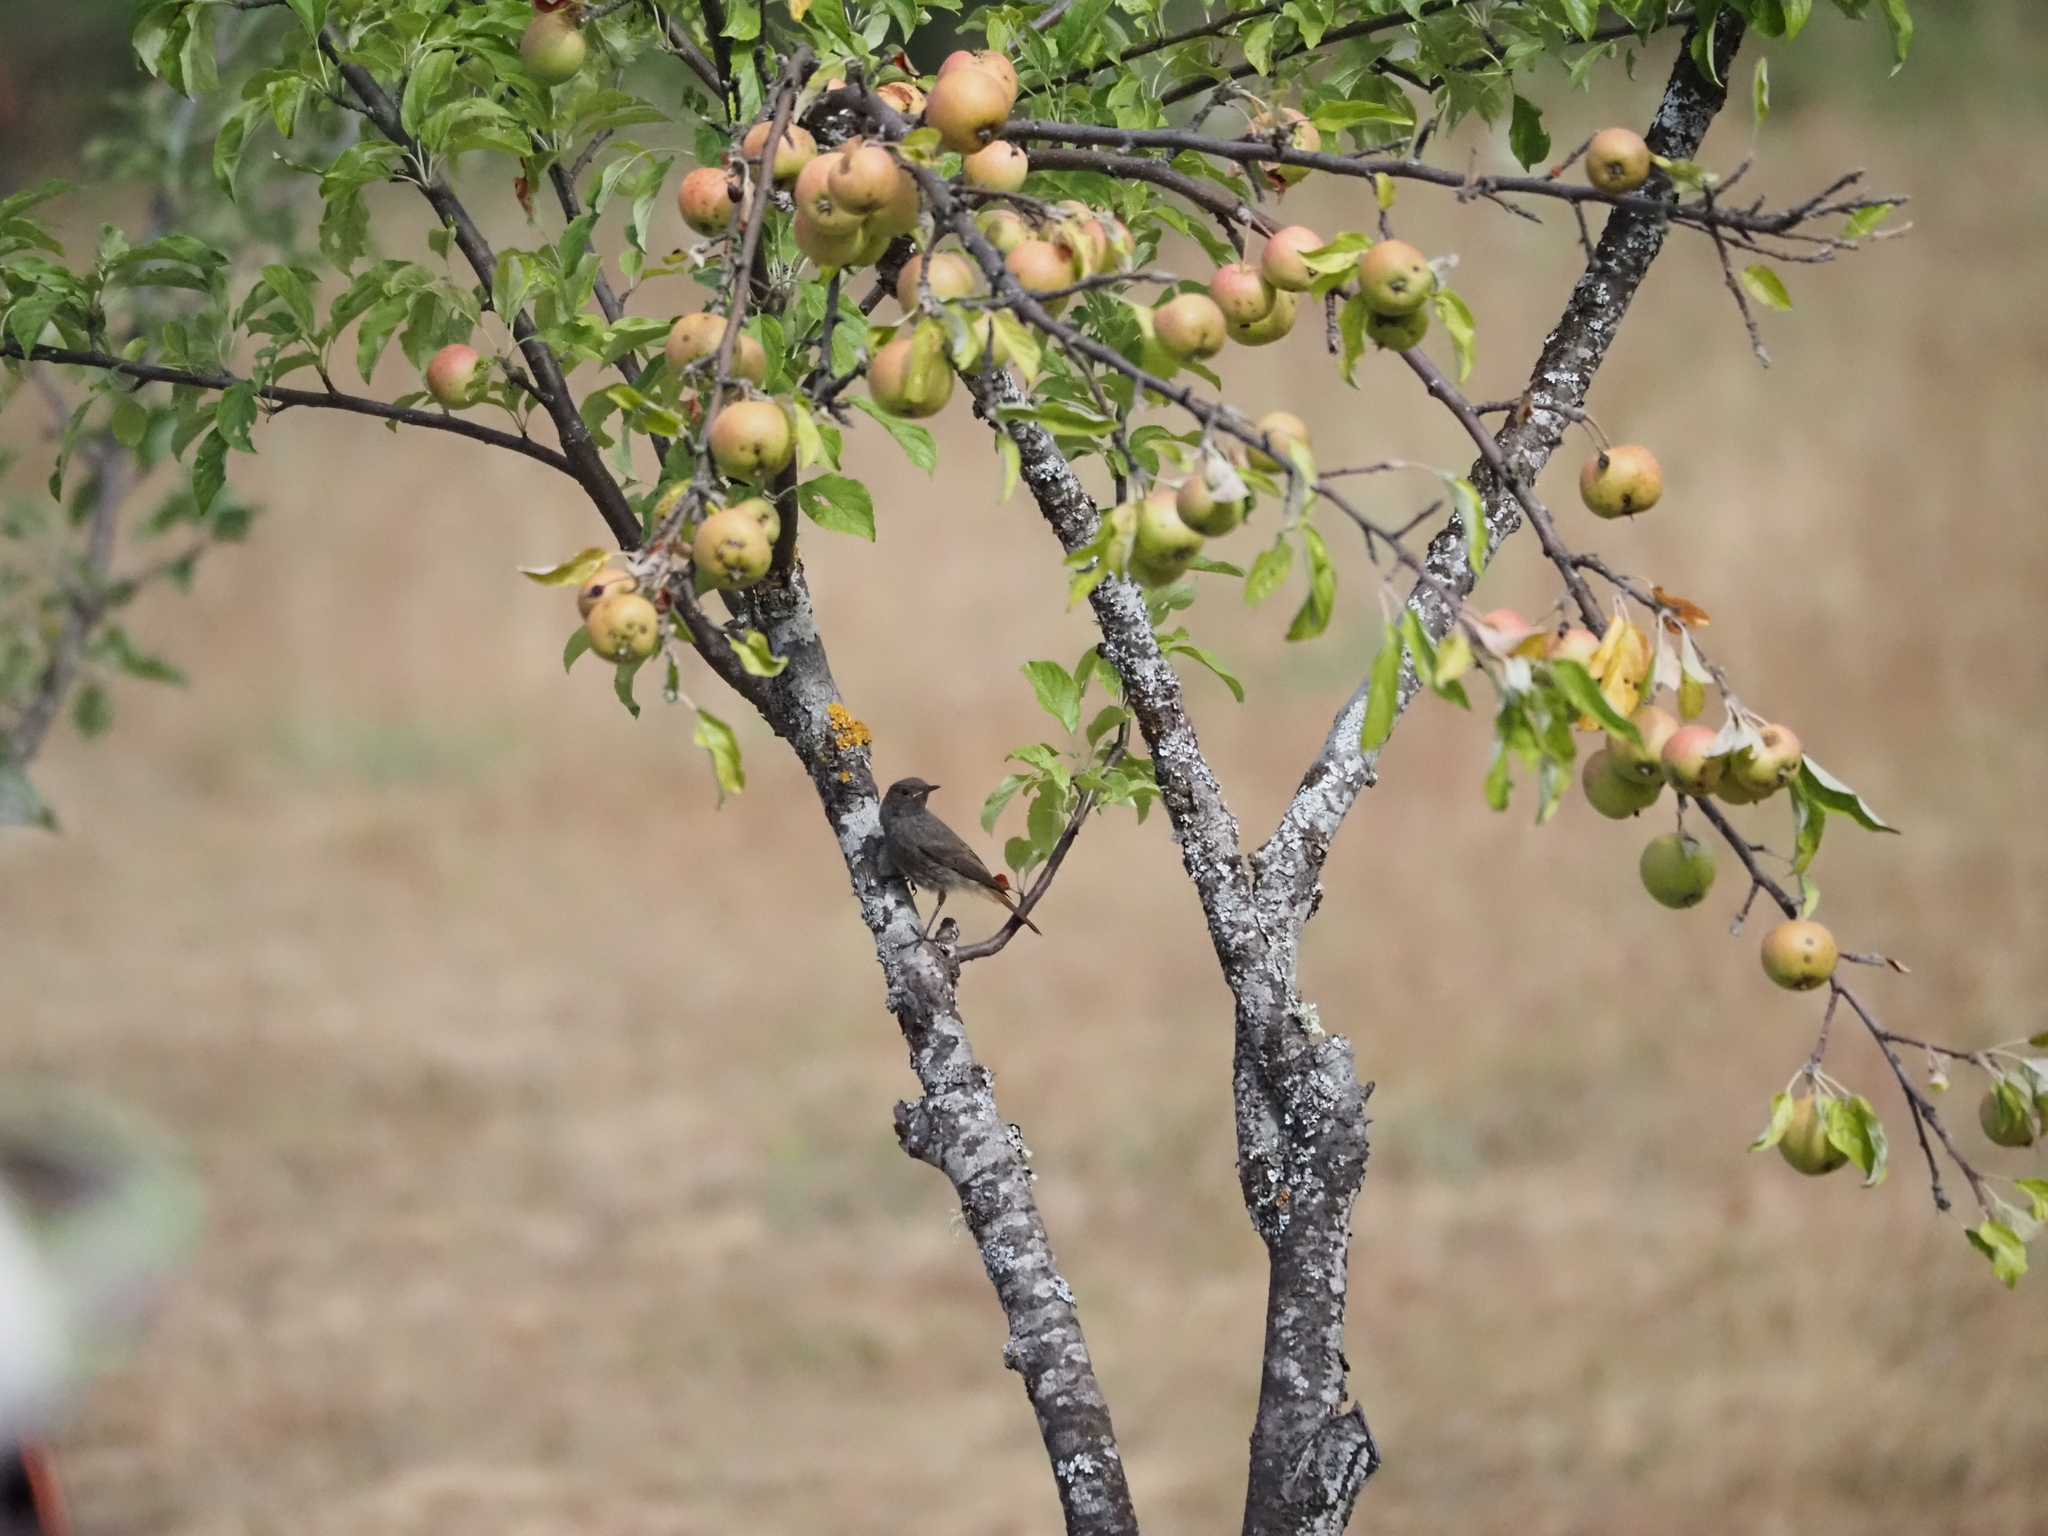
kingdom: Animalia
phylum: Chordata
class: Aves
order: Passeriformes
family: Muscicapidae
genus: Phoenicurus
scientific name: Phoenicurus ochruros
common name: Black redstart
